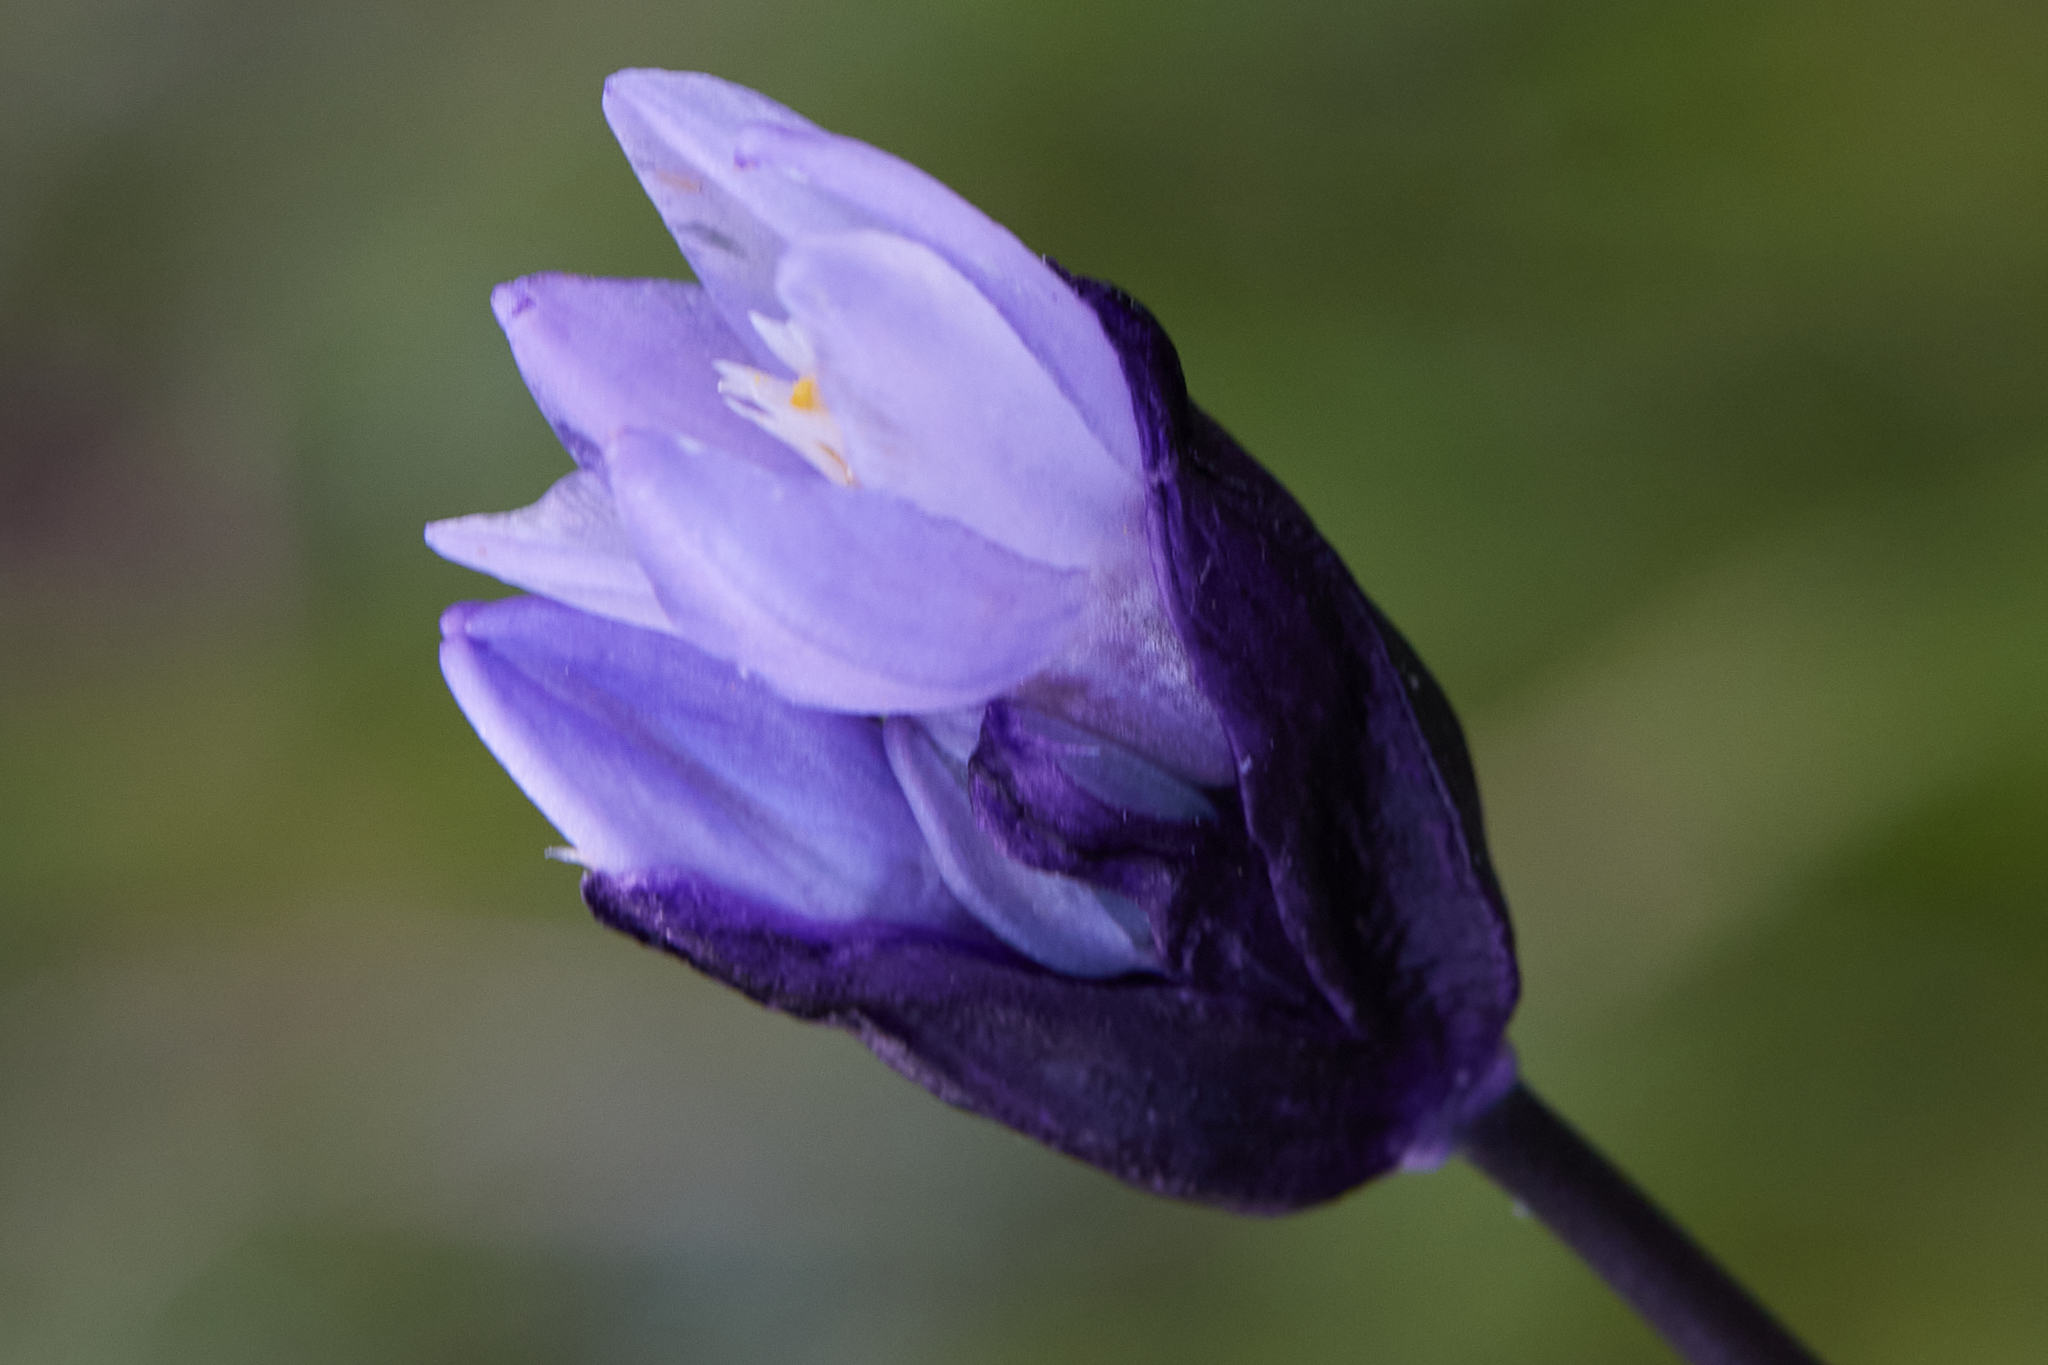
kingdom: Plantae
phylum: Tracheophyta
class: Liliopsida
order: Asparagales
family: Asparagaceae
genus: Dipterostemon
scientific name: Dipterostemon capitatus
